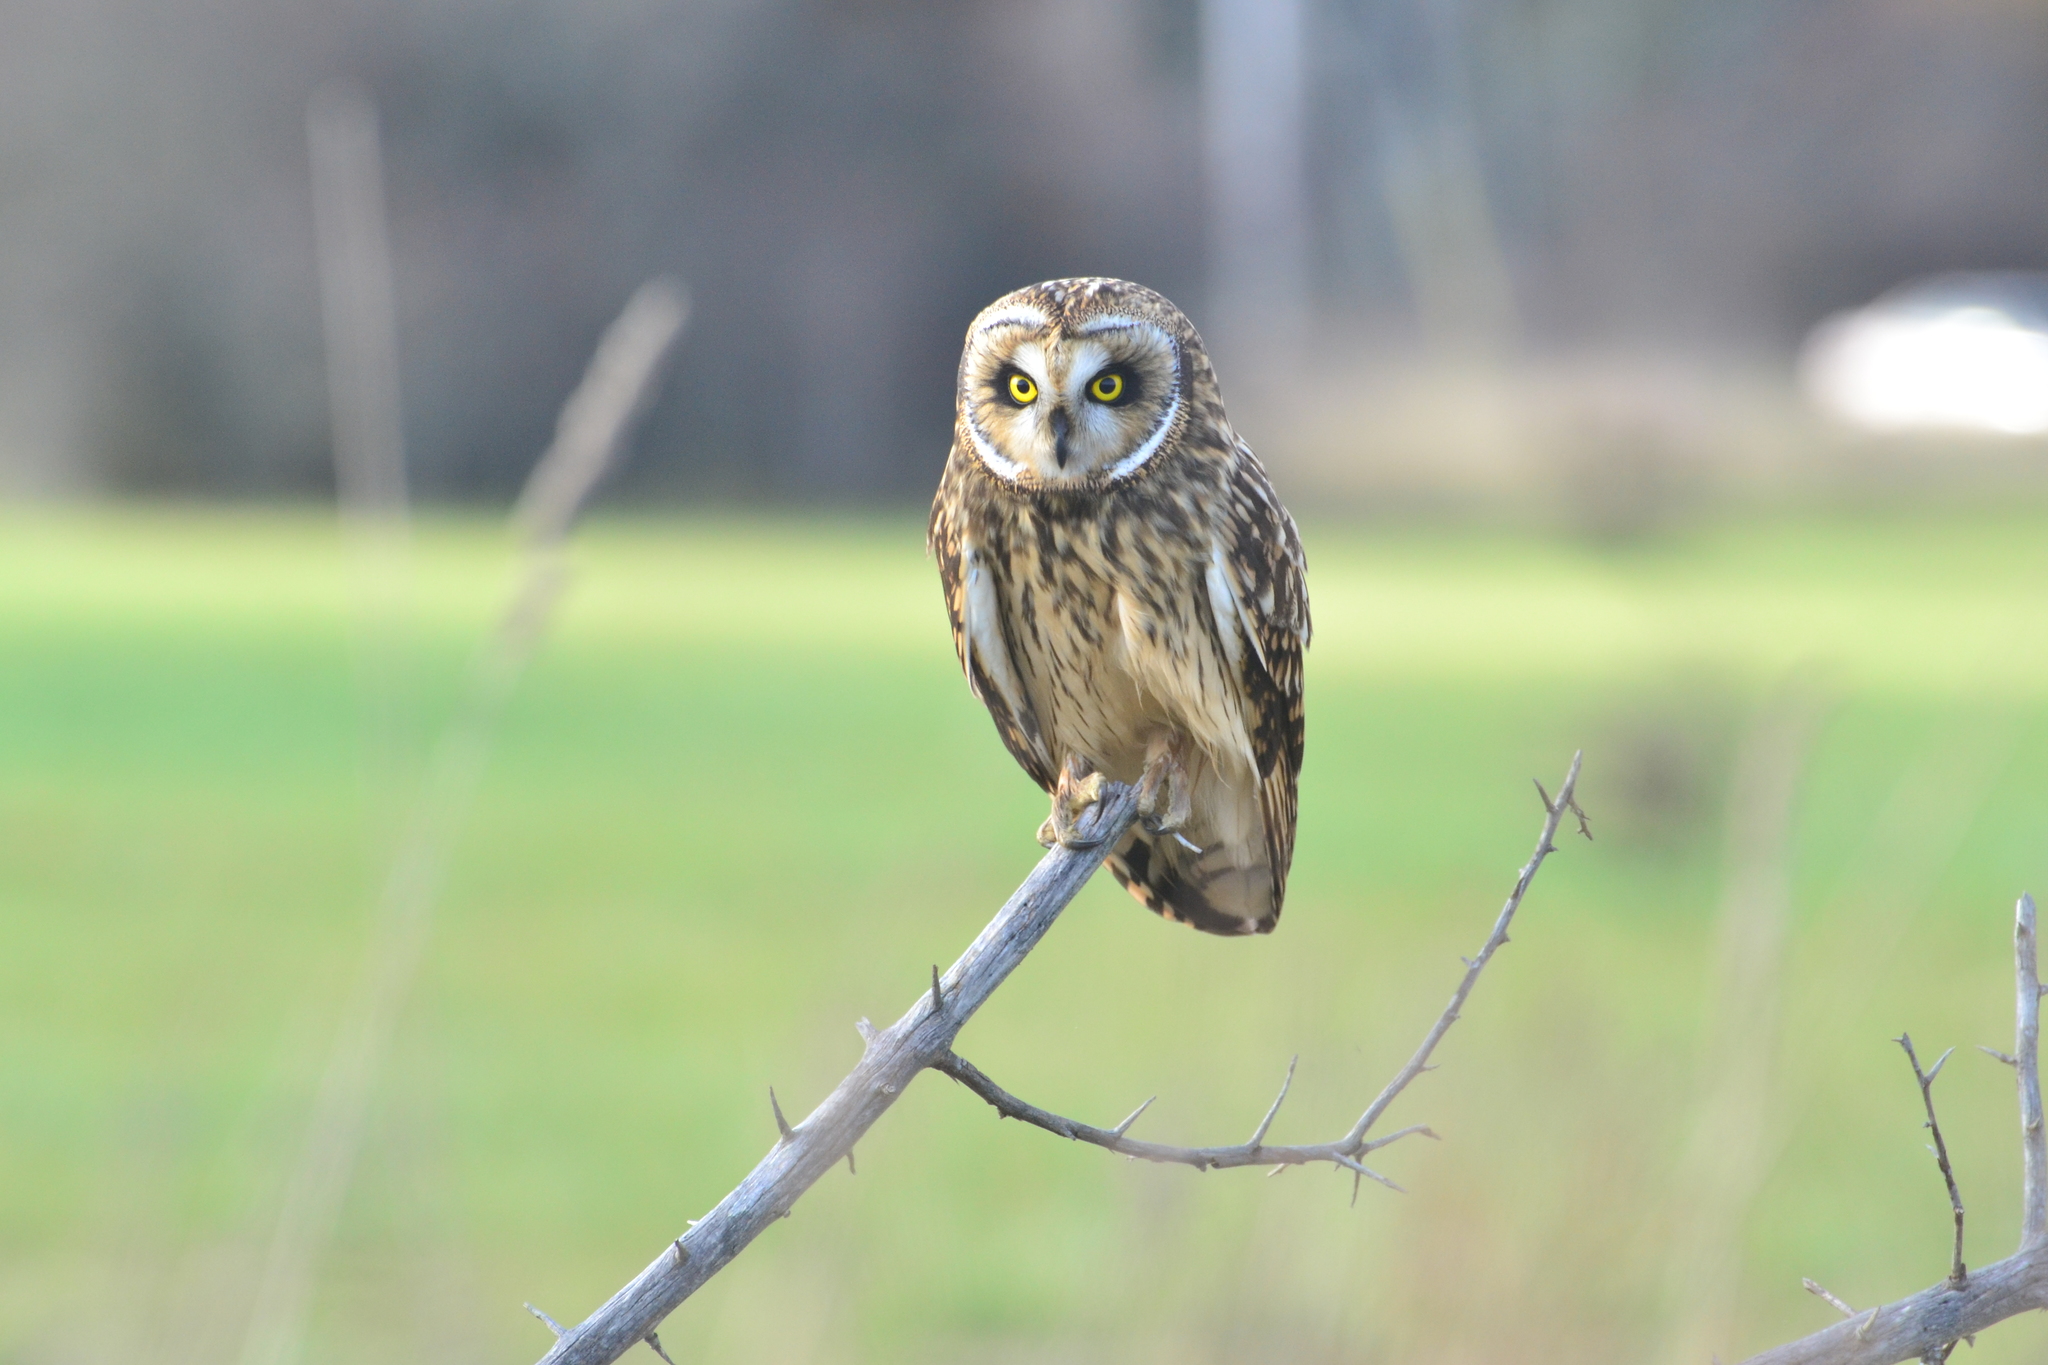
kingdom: Animalia
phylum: Chordata
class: Aves
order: Strigiformes
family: Strigidae
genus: Asio
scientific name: Asio flammeus
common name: Short-eared owl
